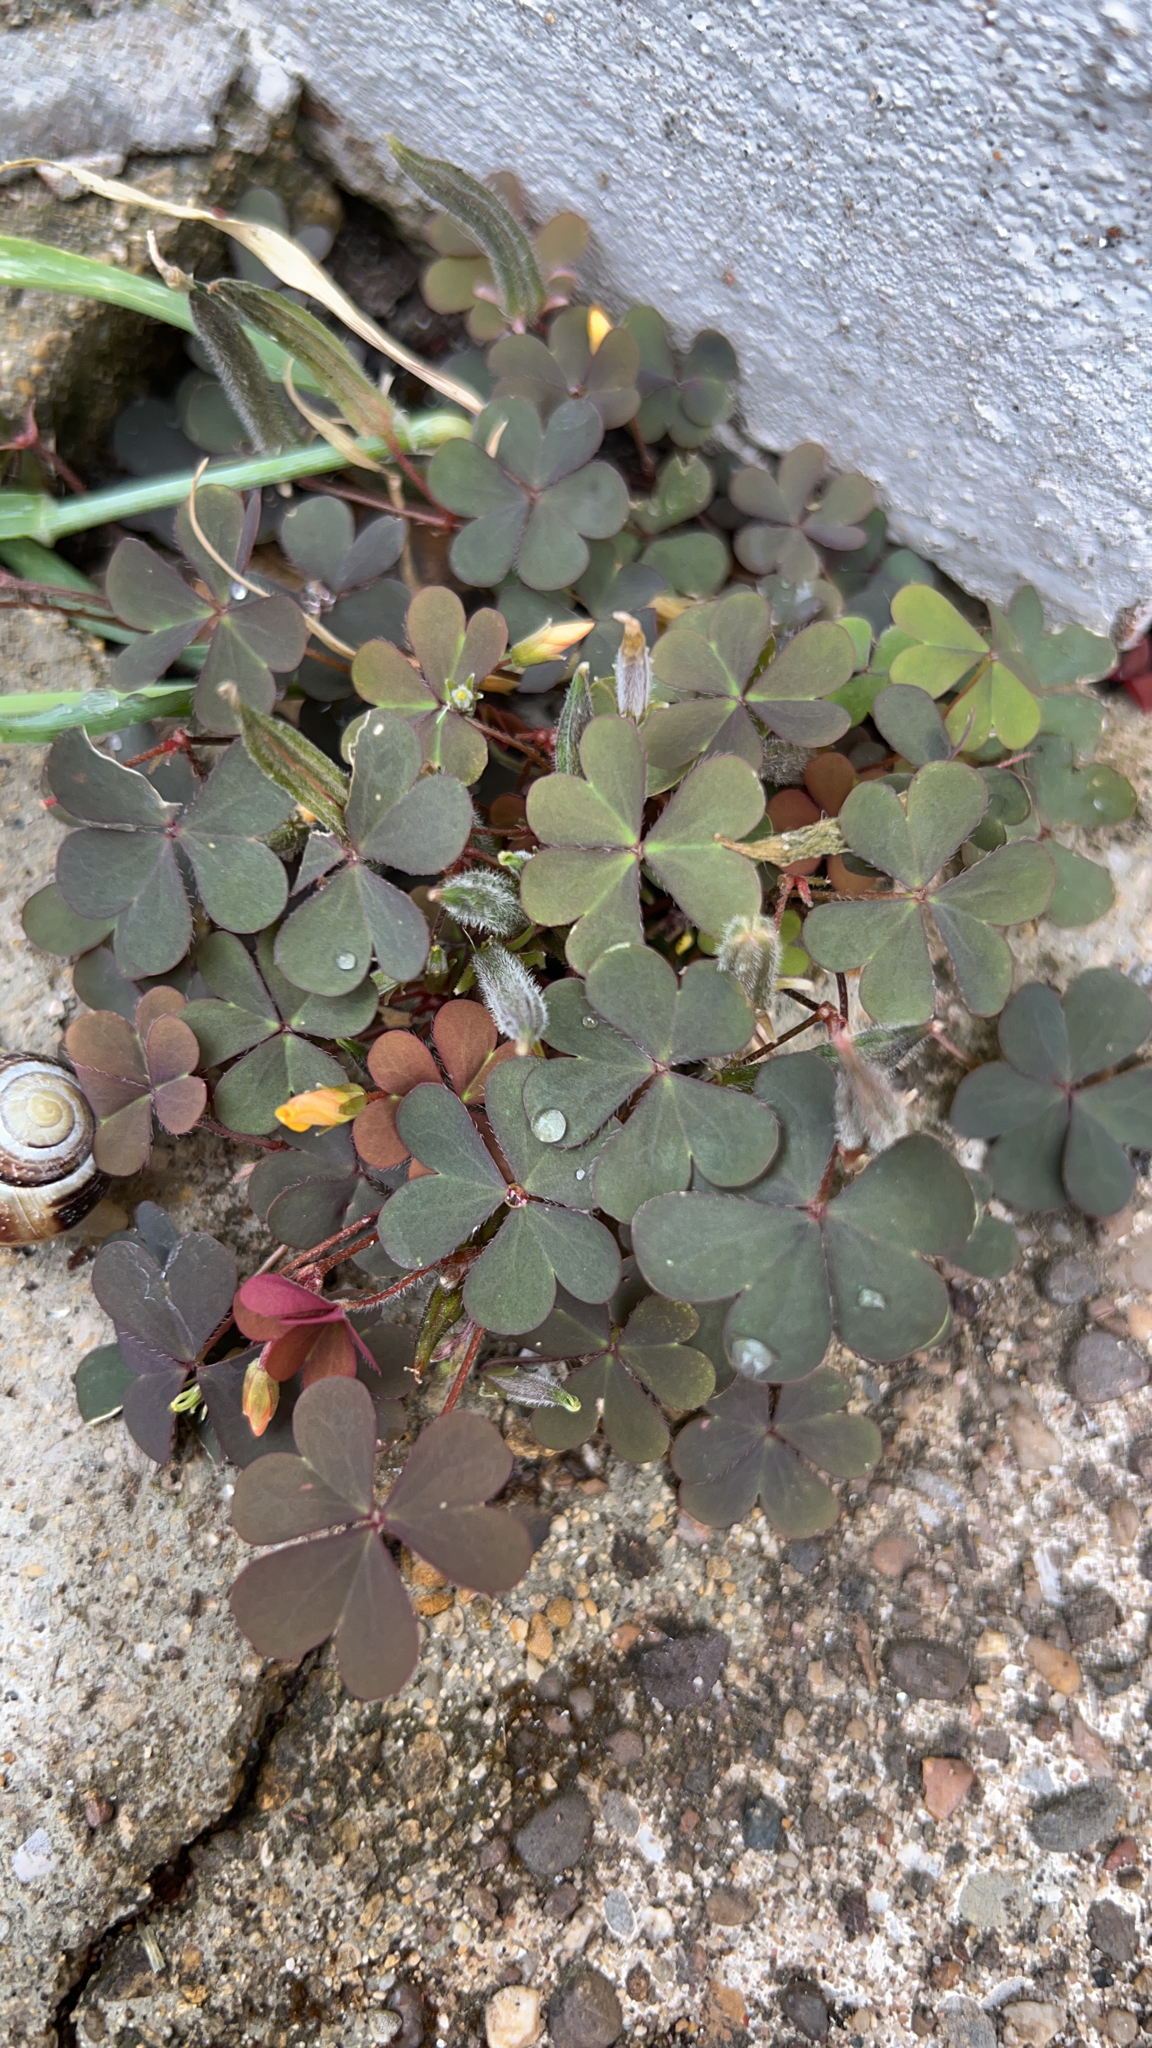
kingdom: Plantae
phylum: Tracheophyta
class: Magnoliopsida
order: Oxalidales
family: Oxalidaceae
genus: Oxalis
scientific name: Oxalis corniculata
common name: Procumbent yellow-sorrel
